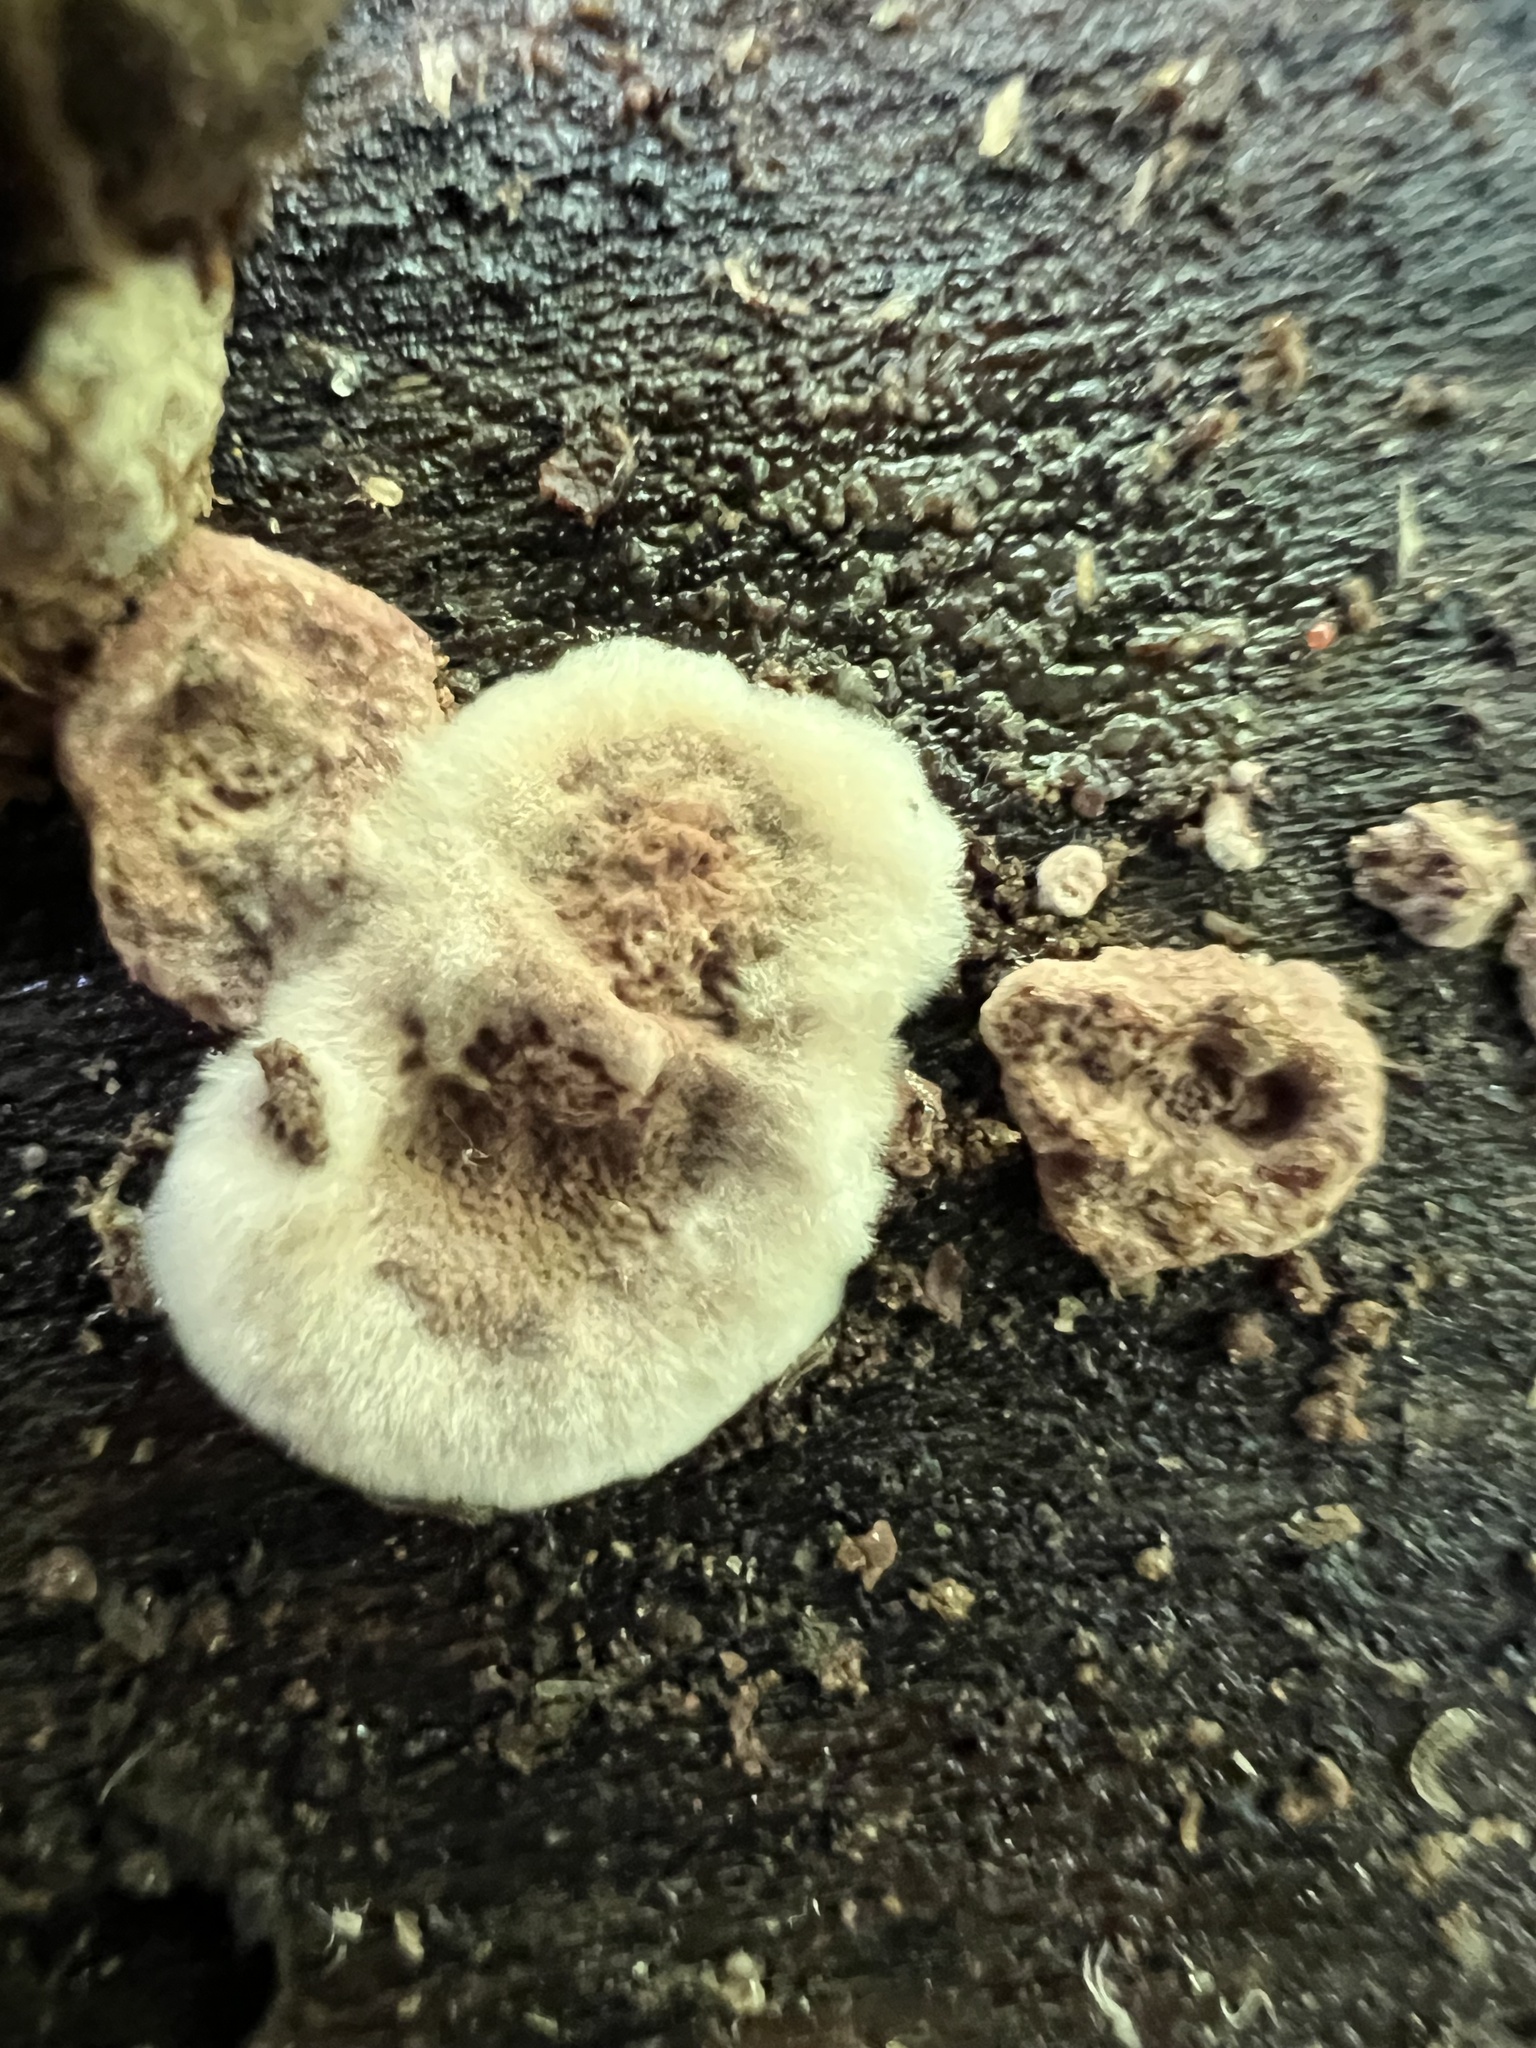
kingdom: Fungi
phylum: Basidiomycota
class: Agaricomycetes
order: Hymenochaetales
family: Hymenochaetaceae
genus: Phellinus
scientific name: Phellinus gilvus
